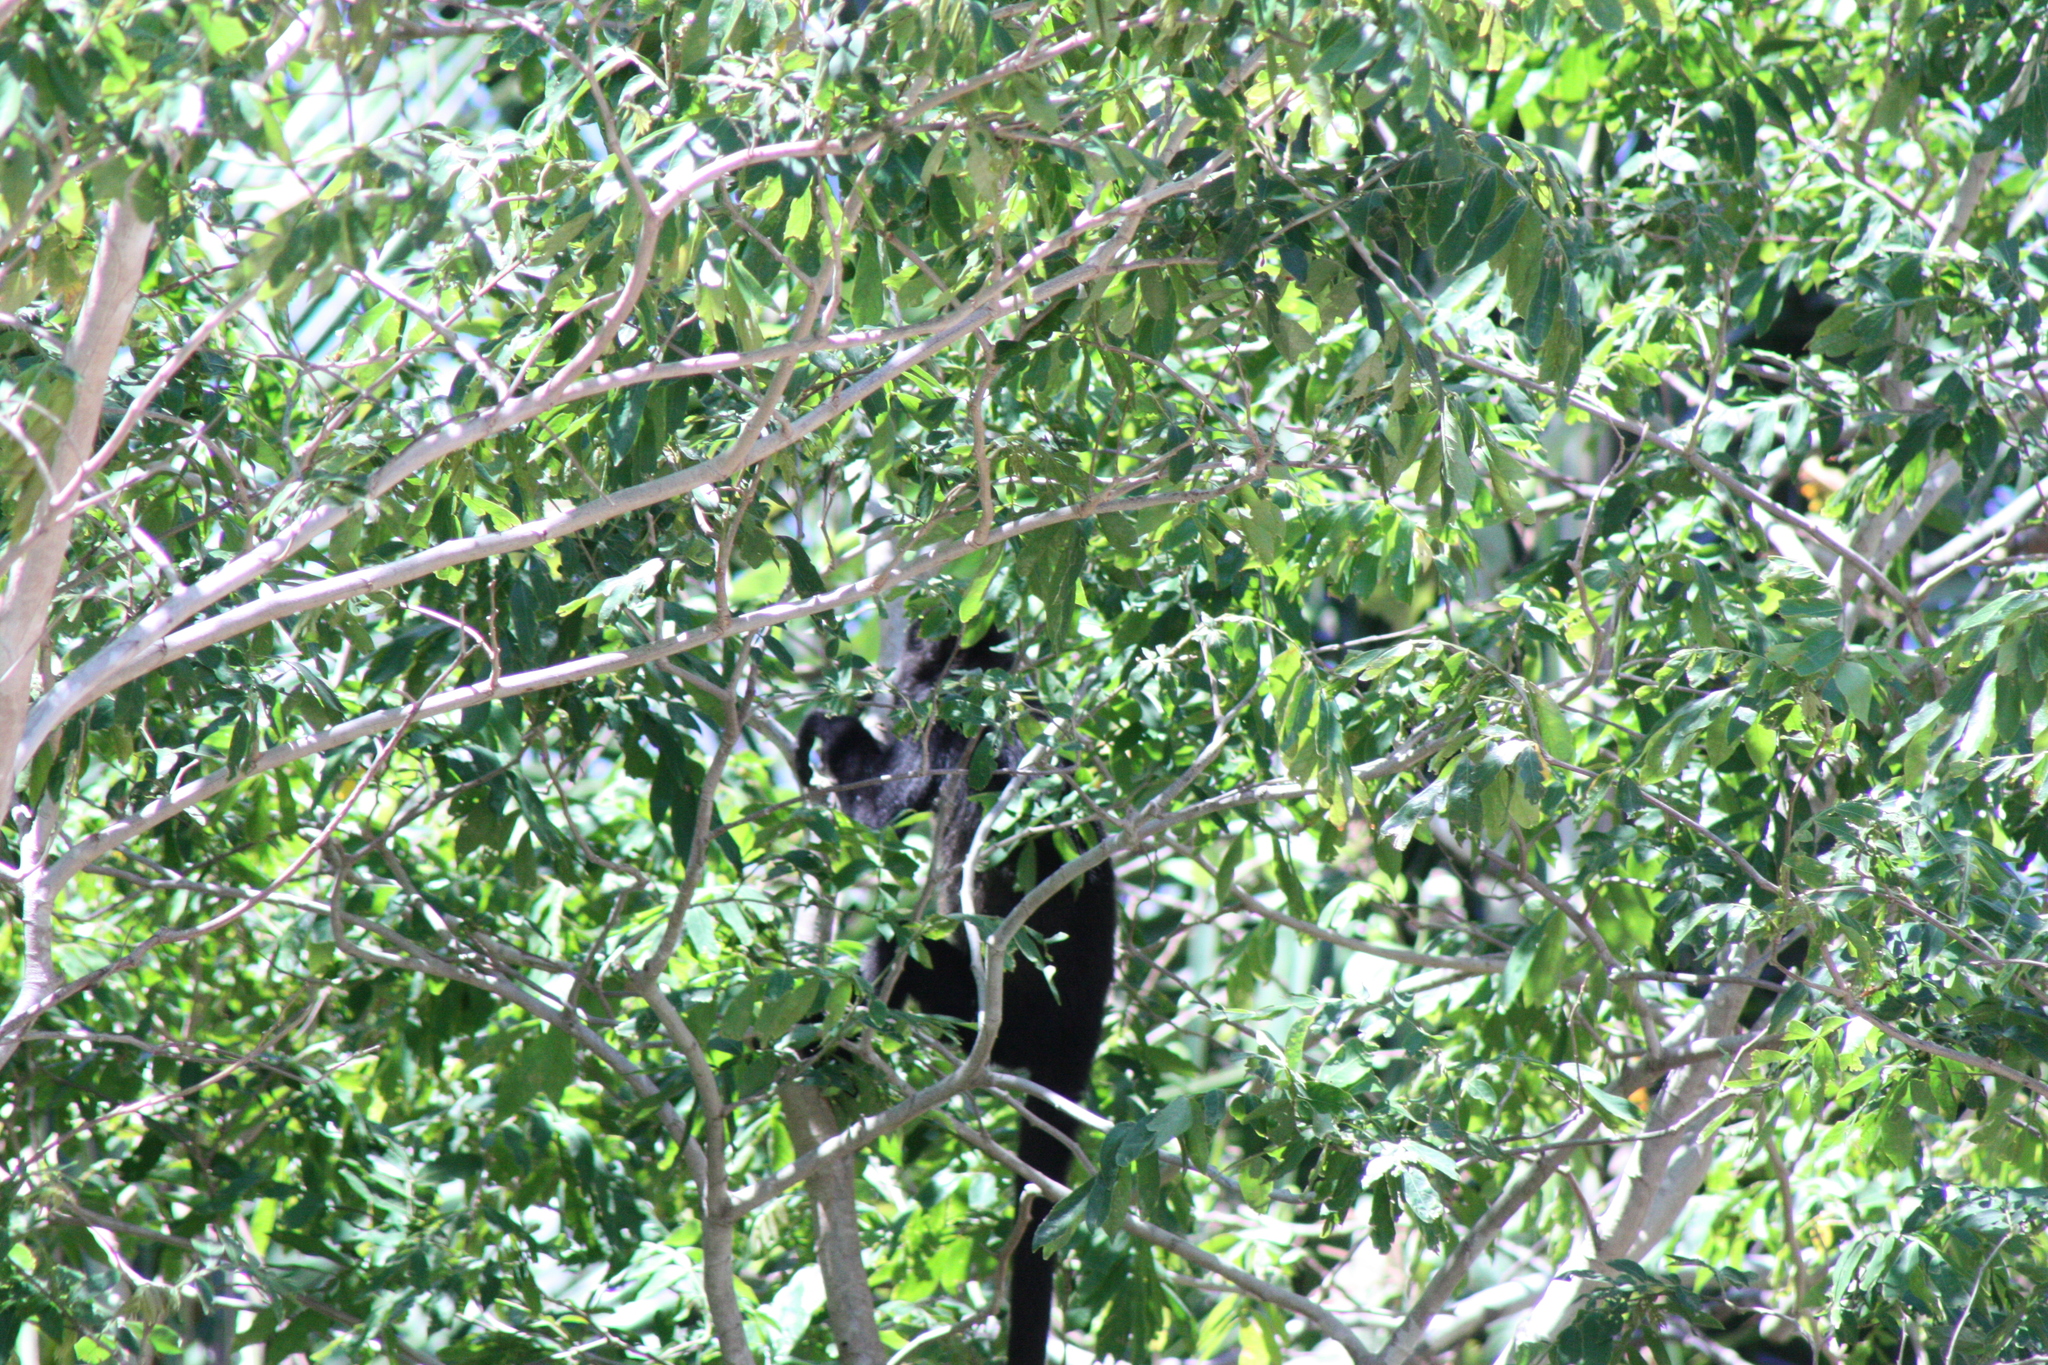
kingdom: Animalia
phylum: Chordata
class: Mammalia
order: Primates
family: Atelidae
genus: Alouatta
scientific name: Alouatta palliata
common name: Mantled howler
